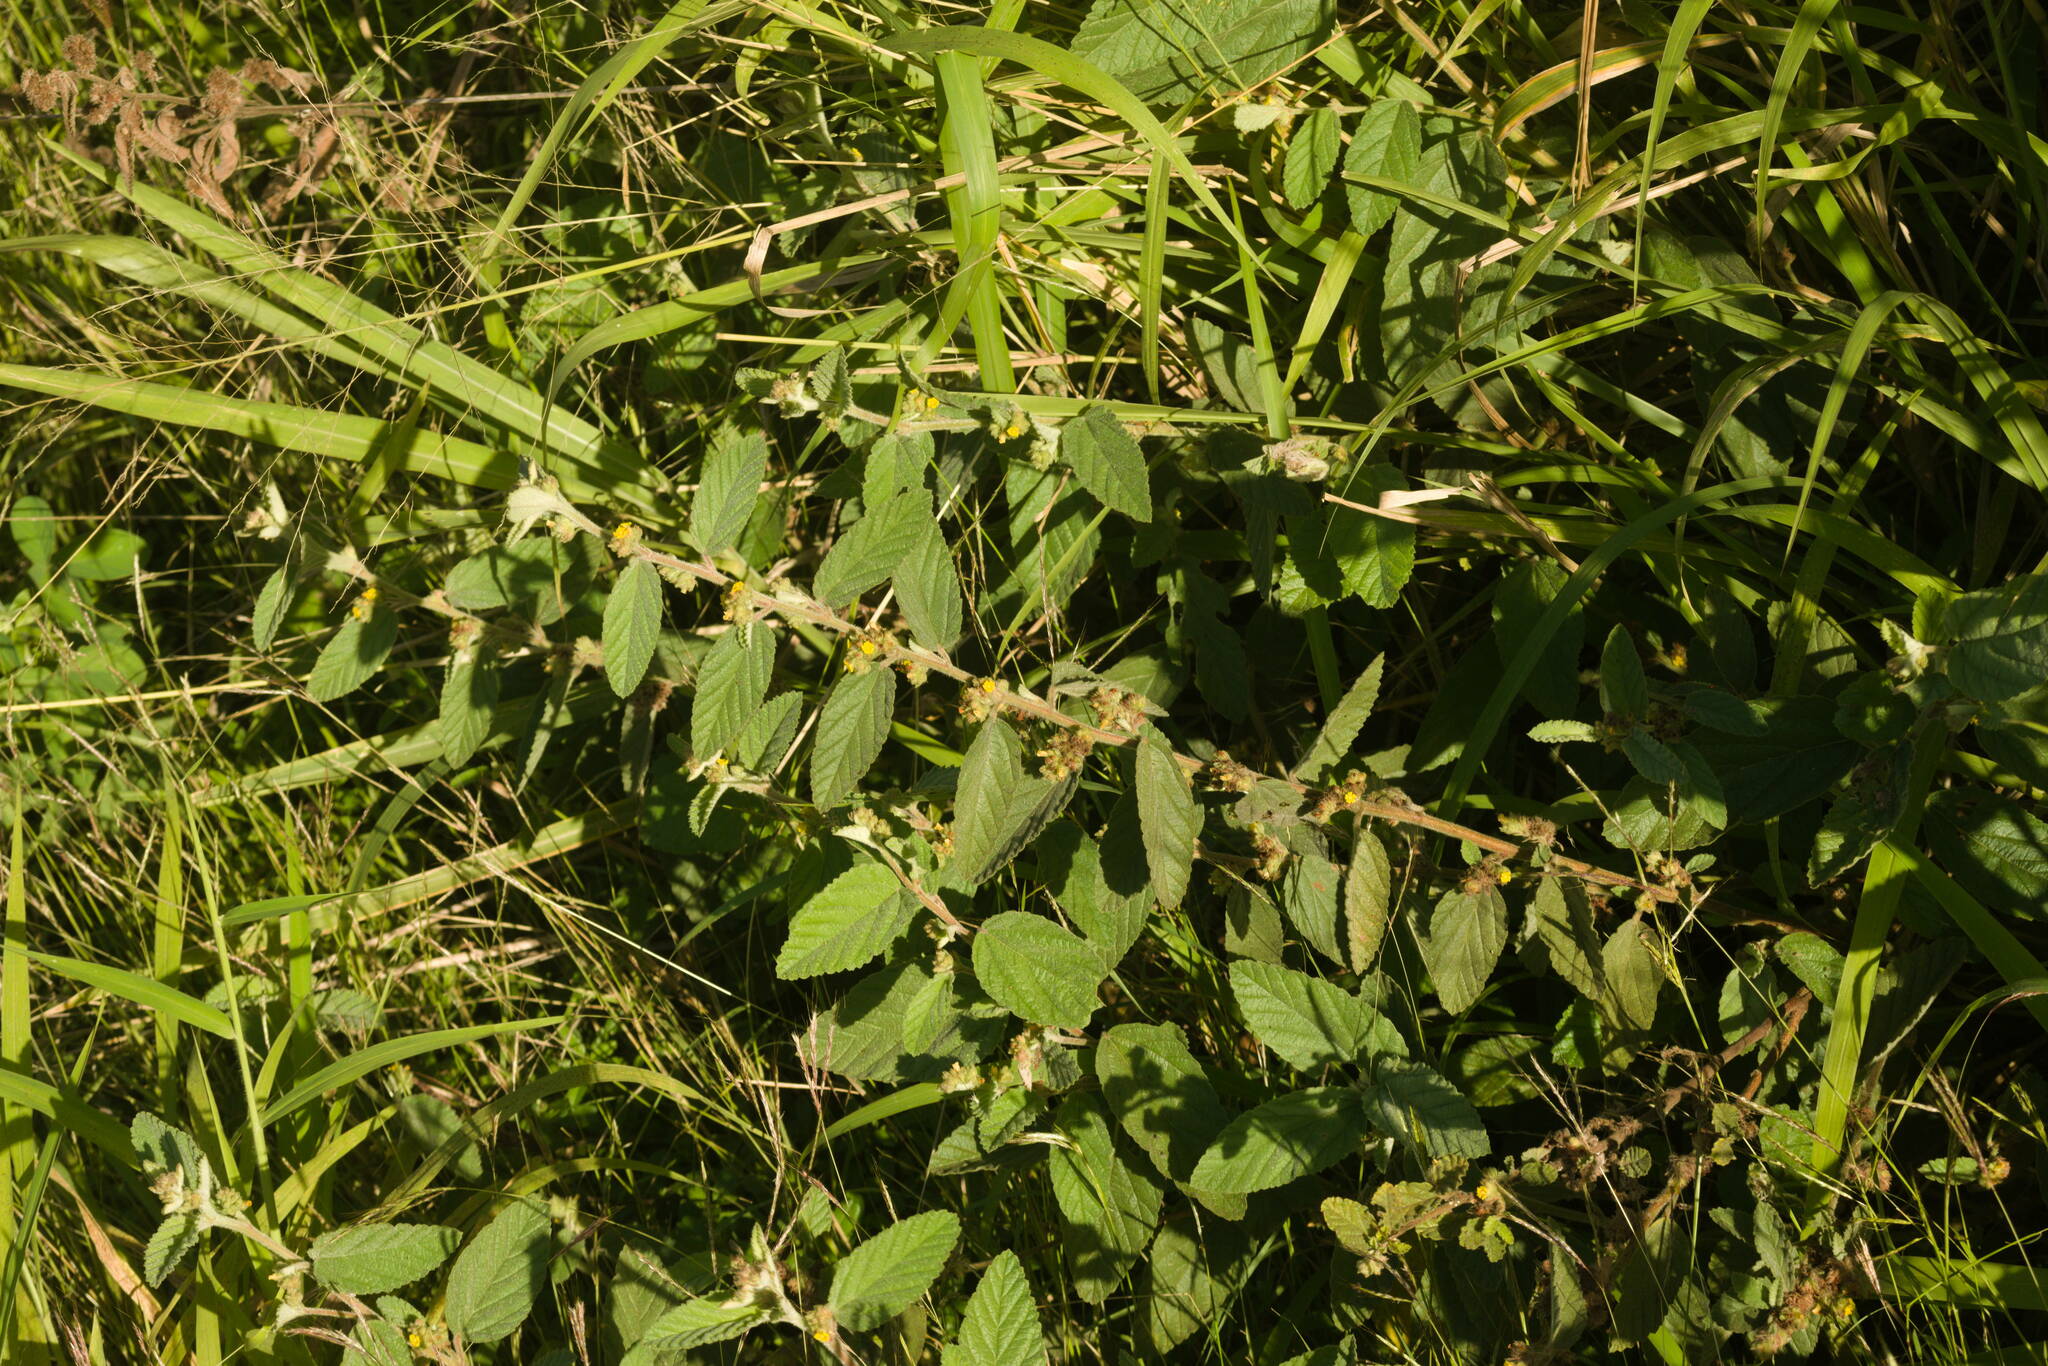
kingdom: Plantae
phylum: Tracheophyta
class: Magnoliopsida
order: Malvales
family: Malvaceae
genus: Waltheria
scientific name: Waltheria indica
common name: Leather-coat
